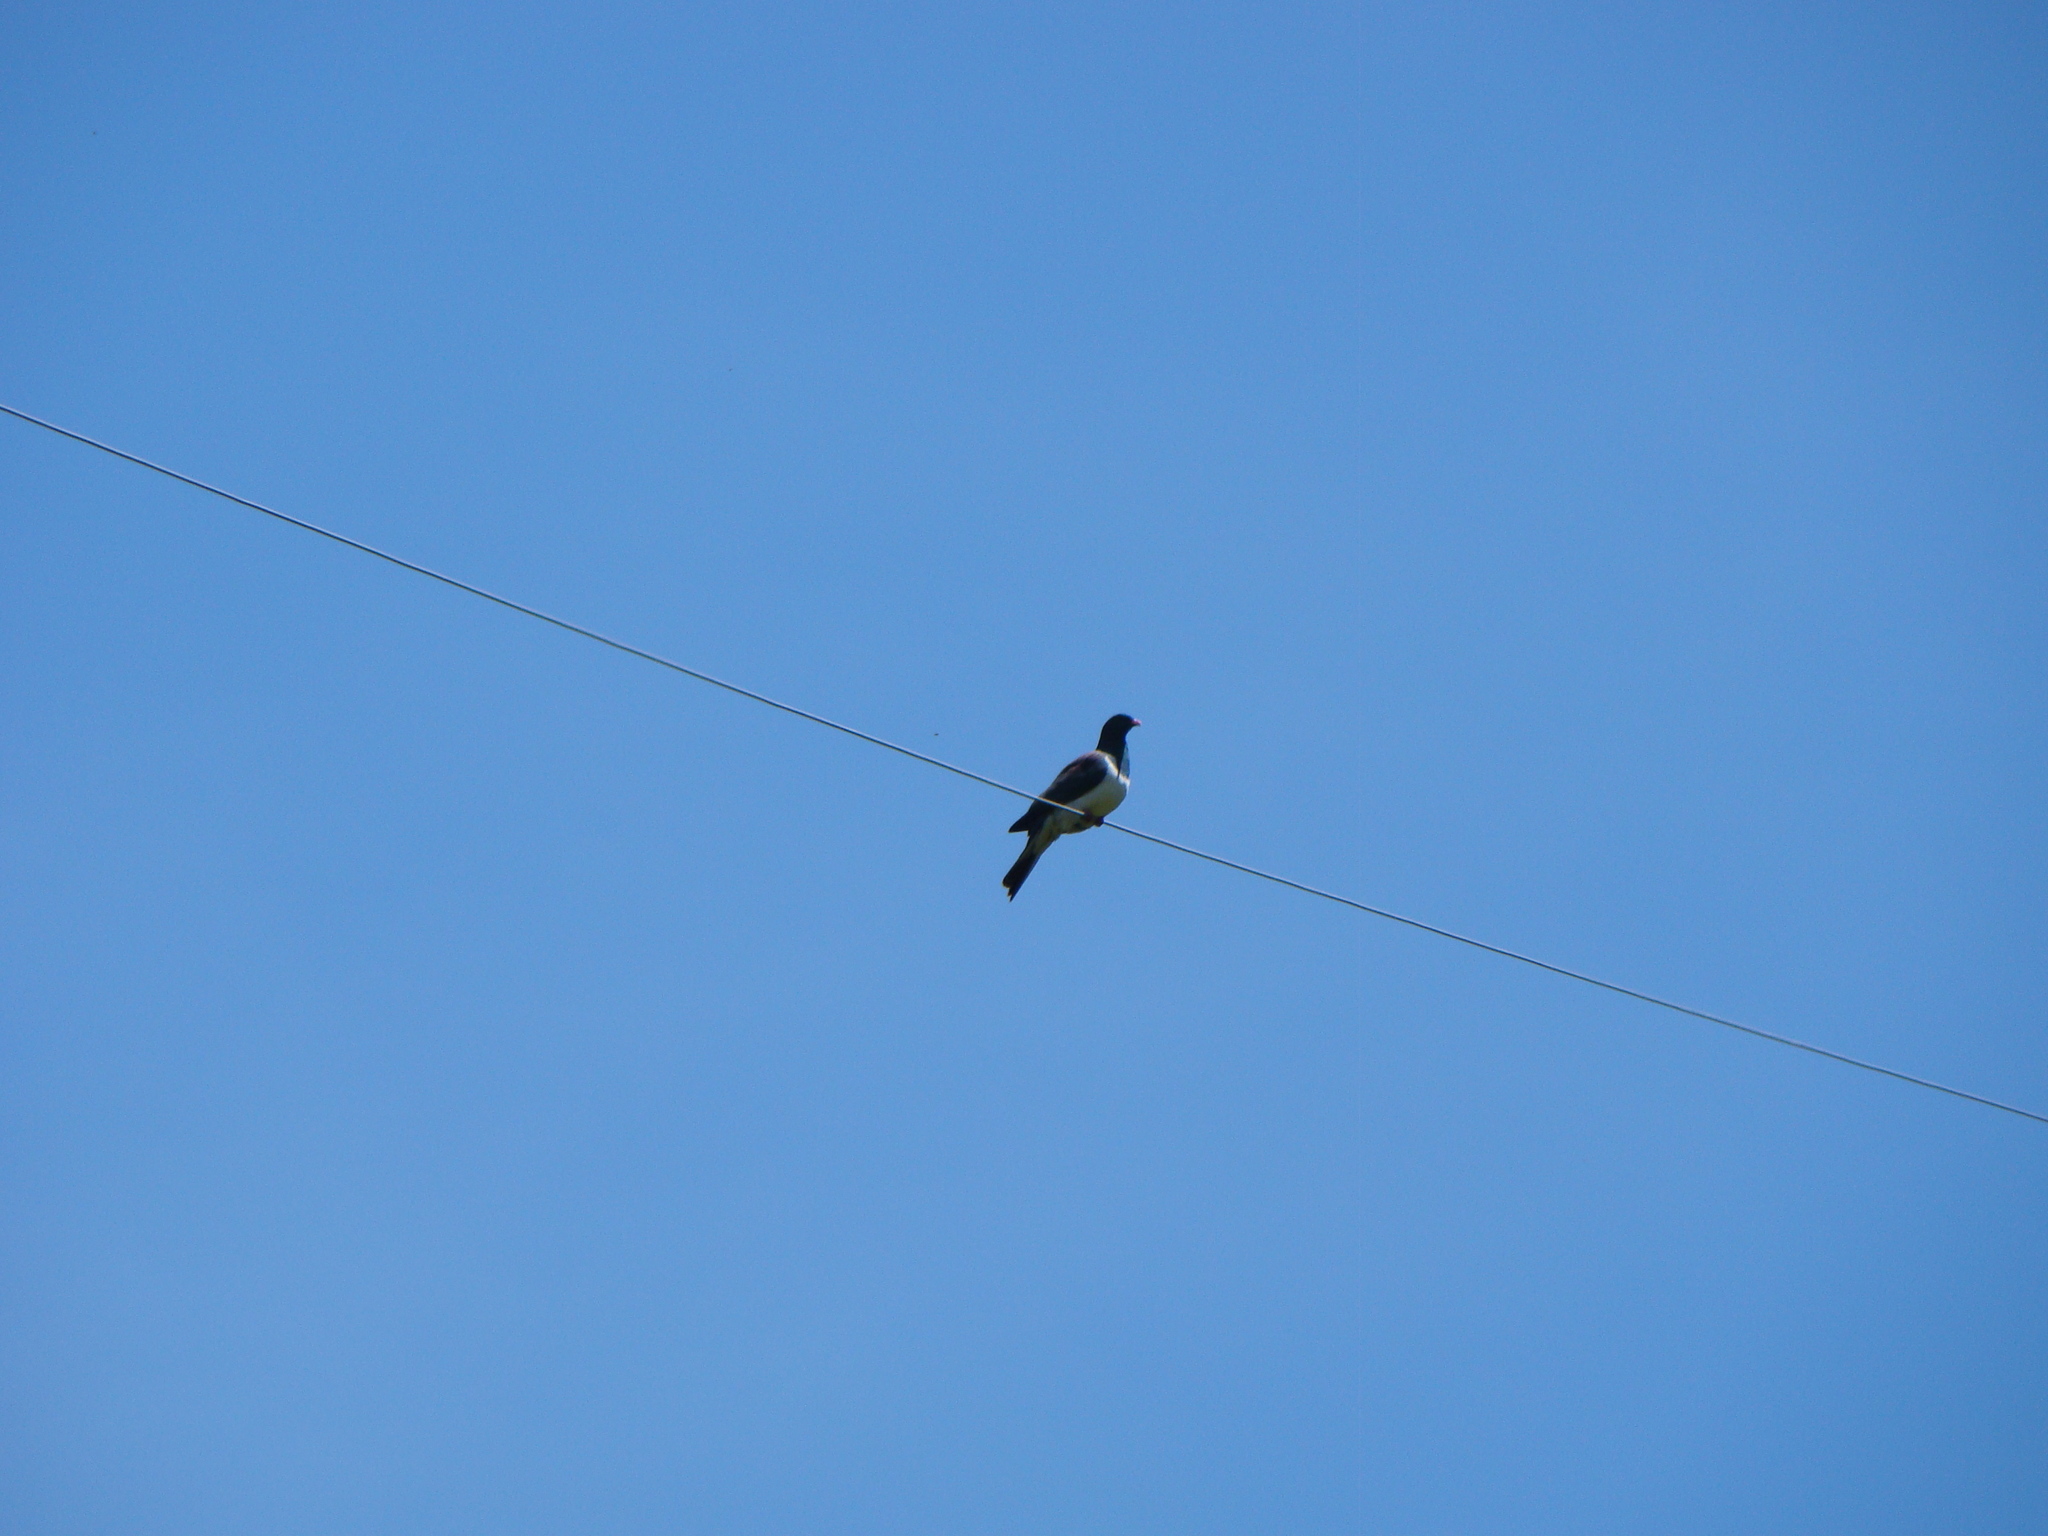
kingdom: Animalia
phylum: Chordata
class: Aves
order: Columbiformes
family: Columbidae
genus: Hemiphaga
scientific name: Hemiphaga novaeseelandiae
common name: New zealand pigeon
